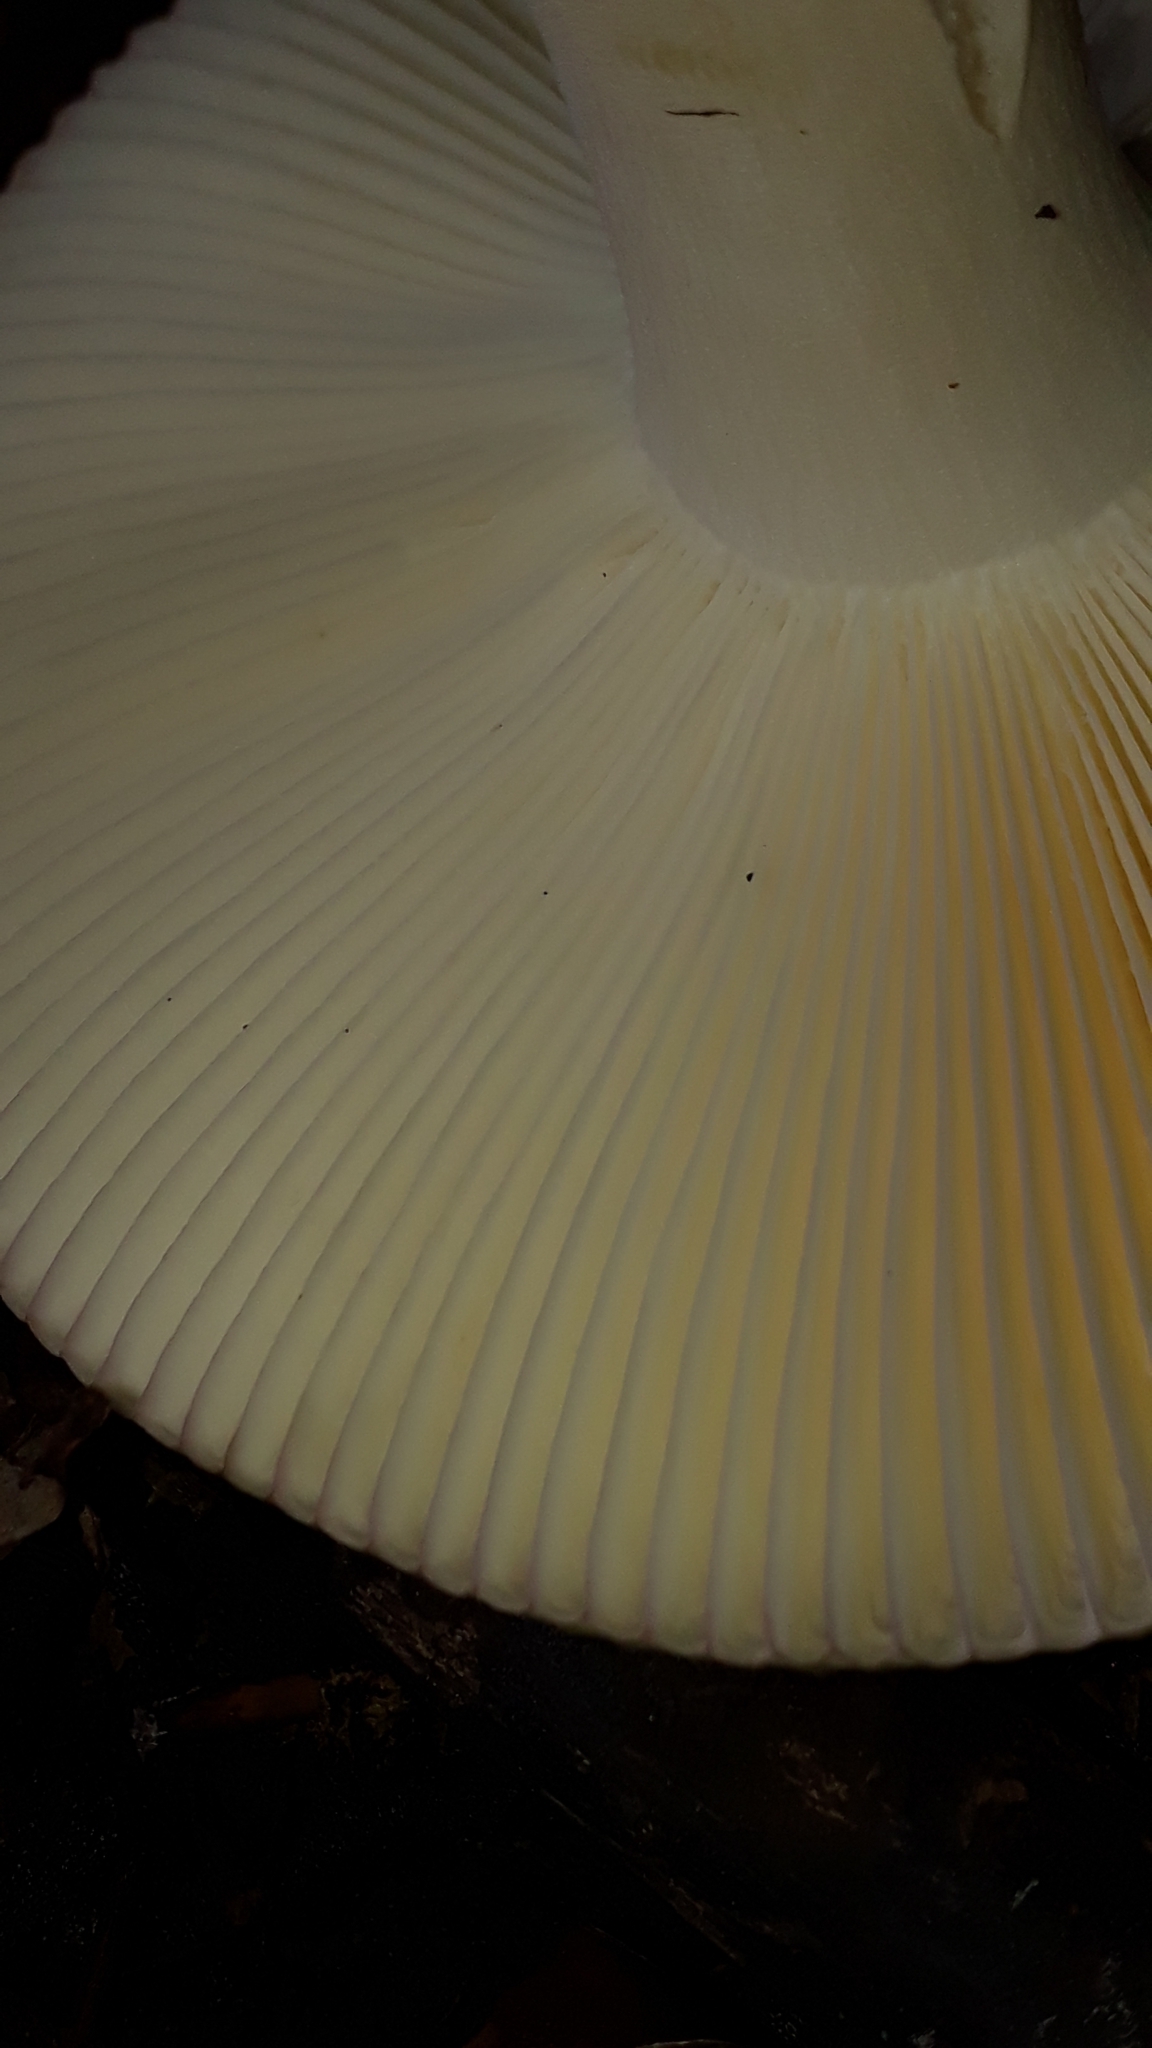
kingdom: Fungi
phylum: Basidiomycota
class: Agaricomycetes
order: Russulales
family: Russulaceae
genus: Russula
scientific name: Russula cyanoxantha
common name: Charcoal burner
